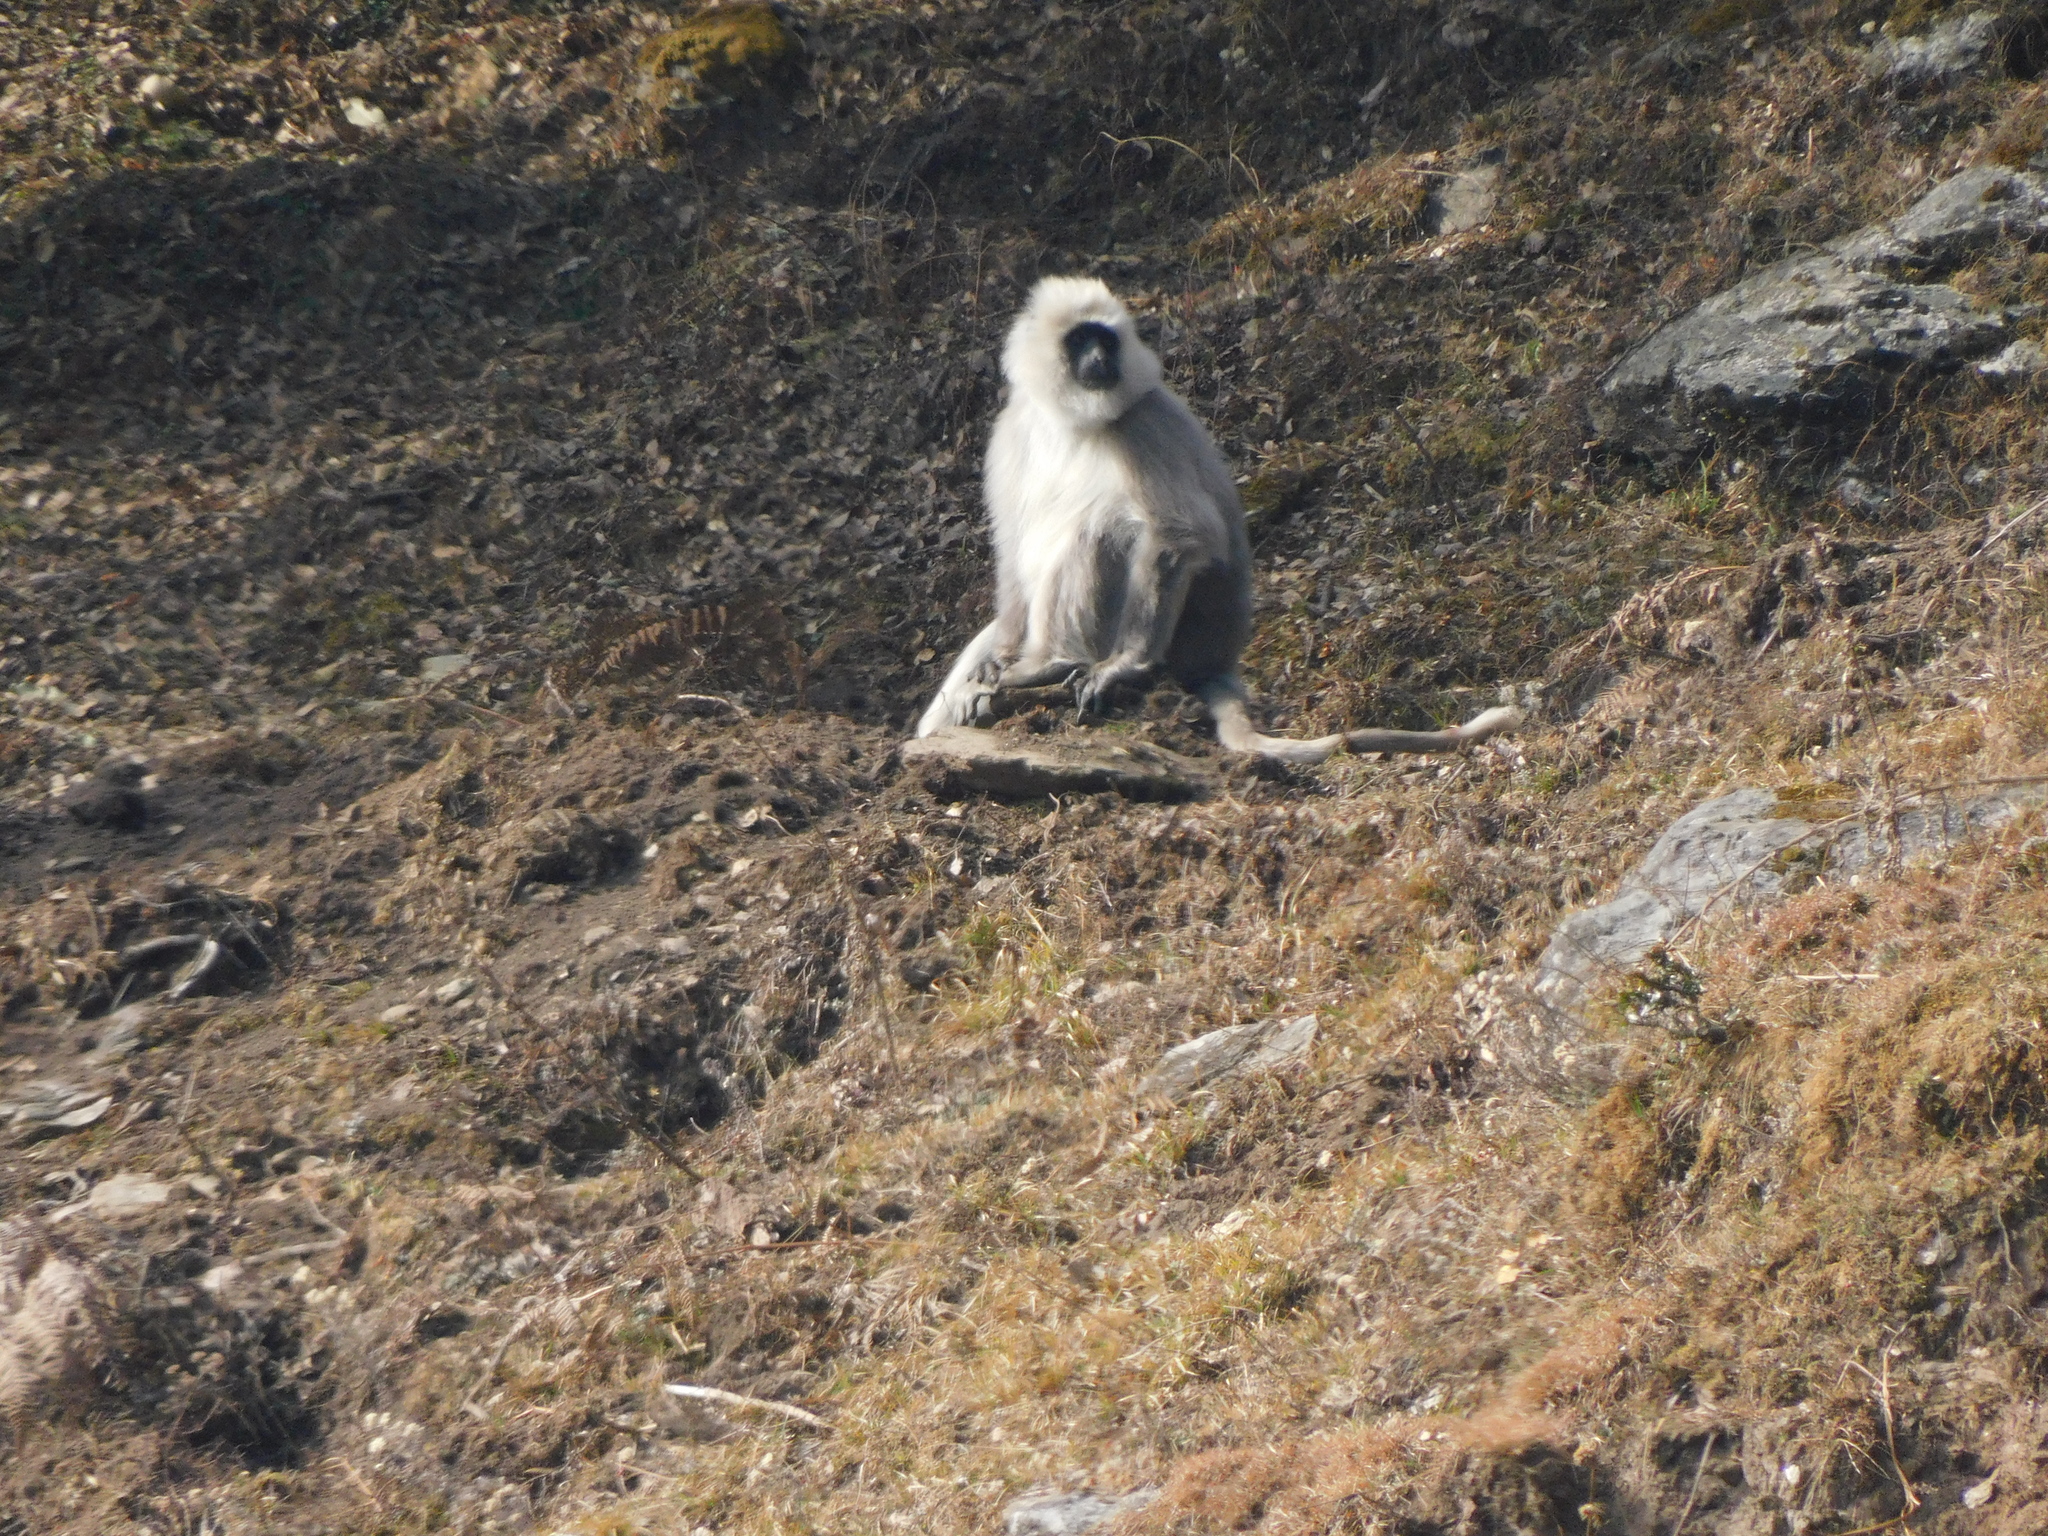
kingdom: Animalia
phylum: Chordata
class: Mammalia
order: Primates
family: Cercopithecidae
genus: Semnopithecus
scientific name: Semnopithecus schistaceus
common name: Nepal gray langur
